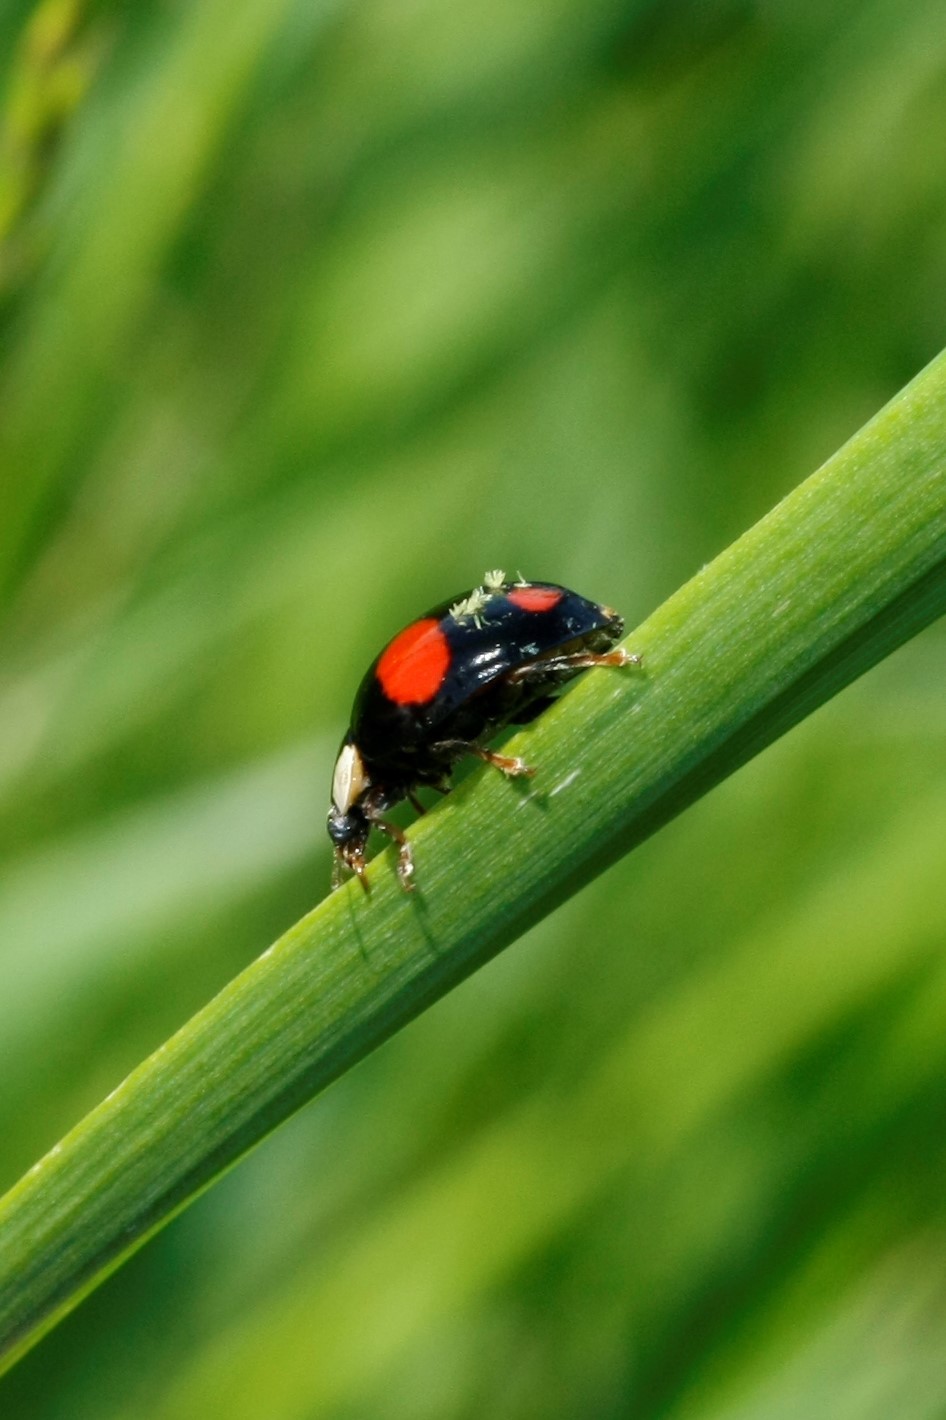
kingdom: Animalia
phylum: Arthropoda
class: Insecta
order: Coleoptera
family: Coccinellidae
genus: Harmonia
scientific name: Harmonia axyridis
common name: Harlequin ladybird
